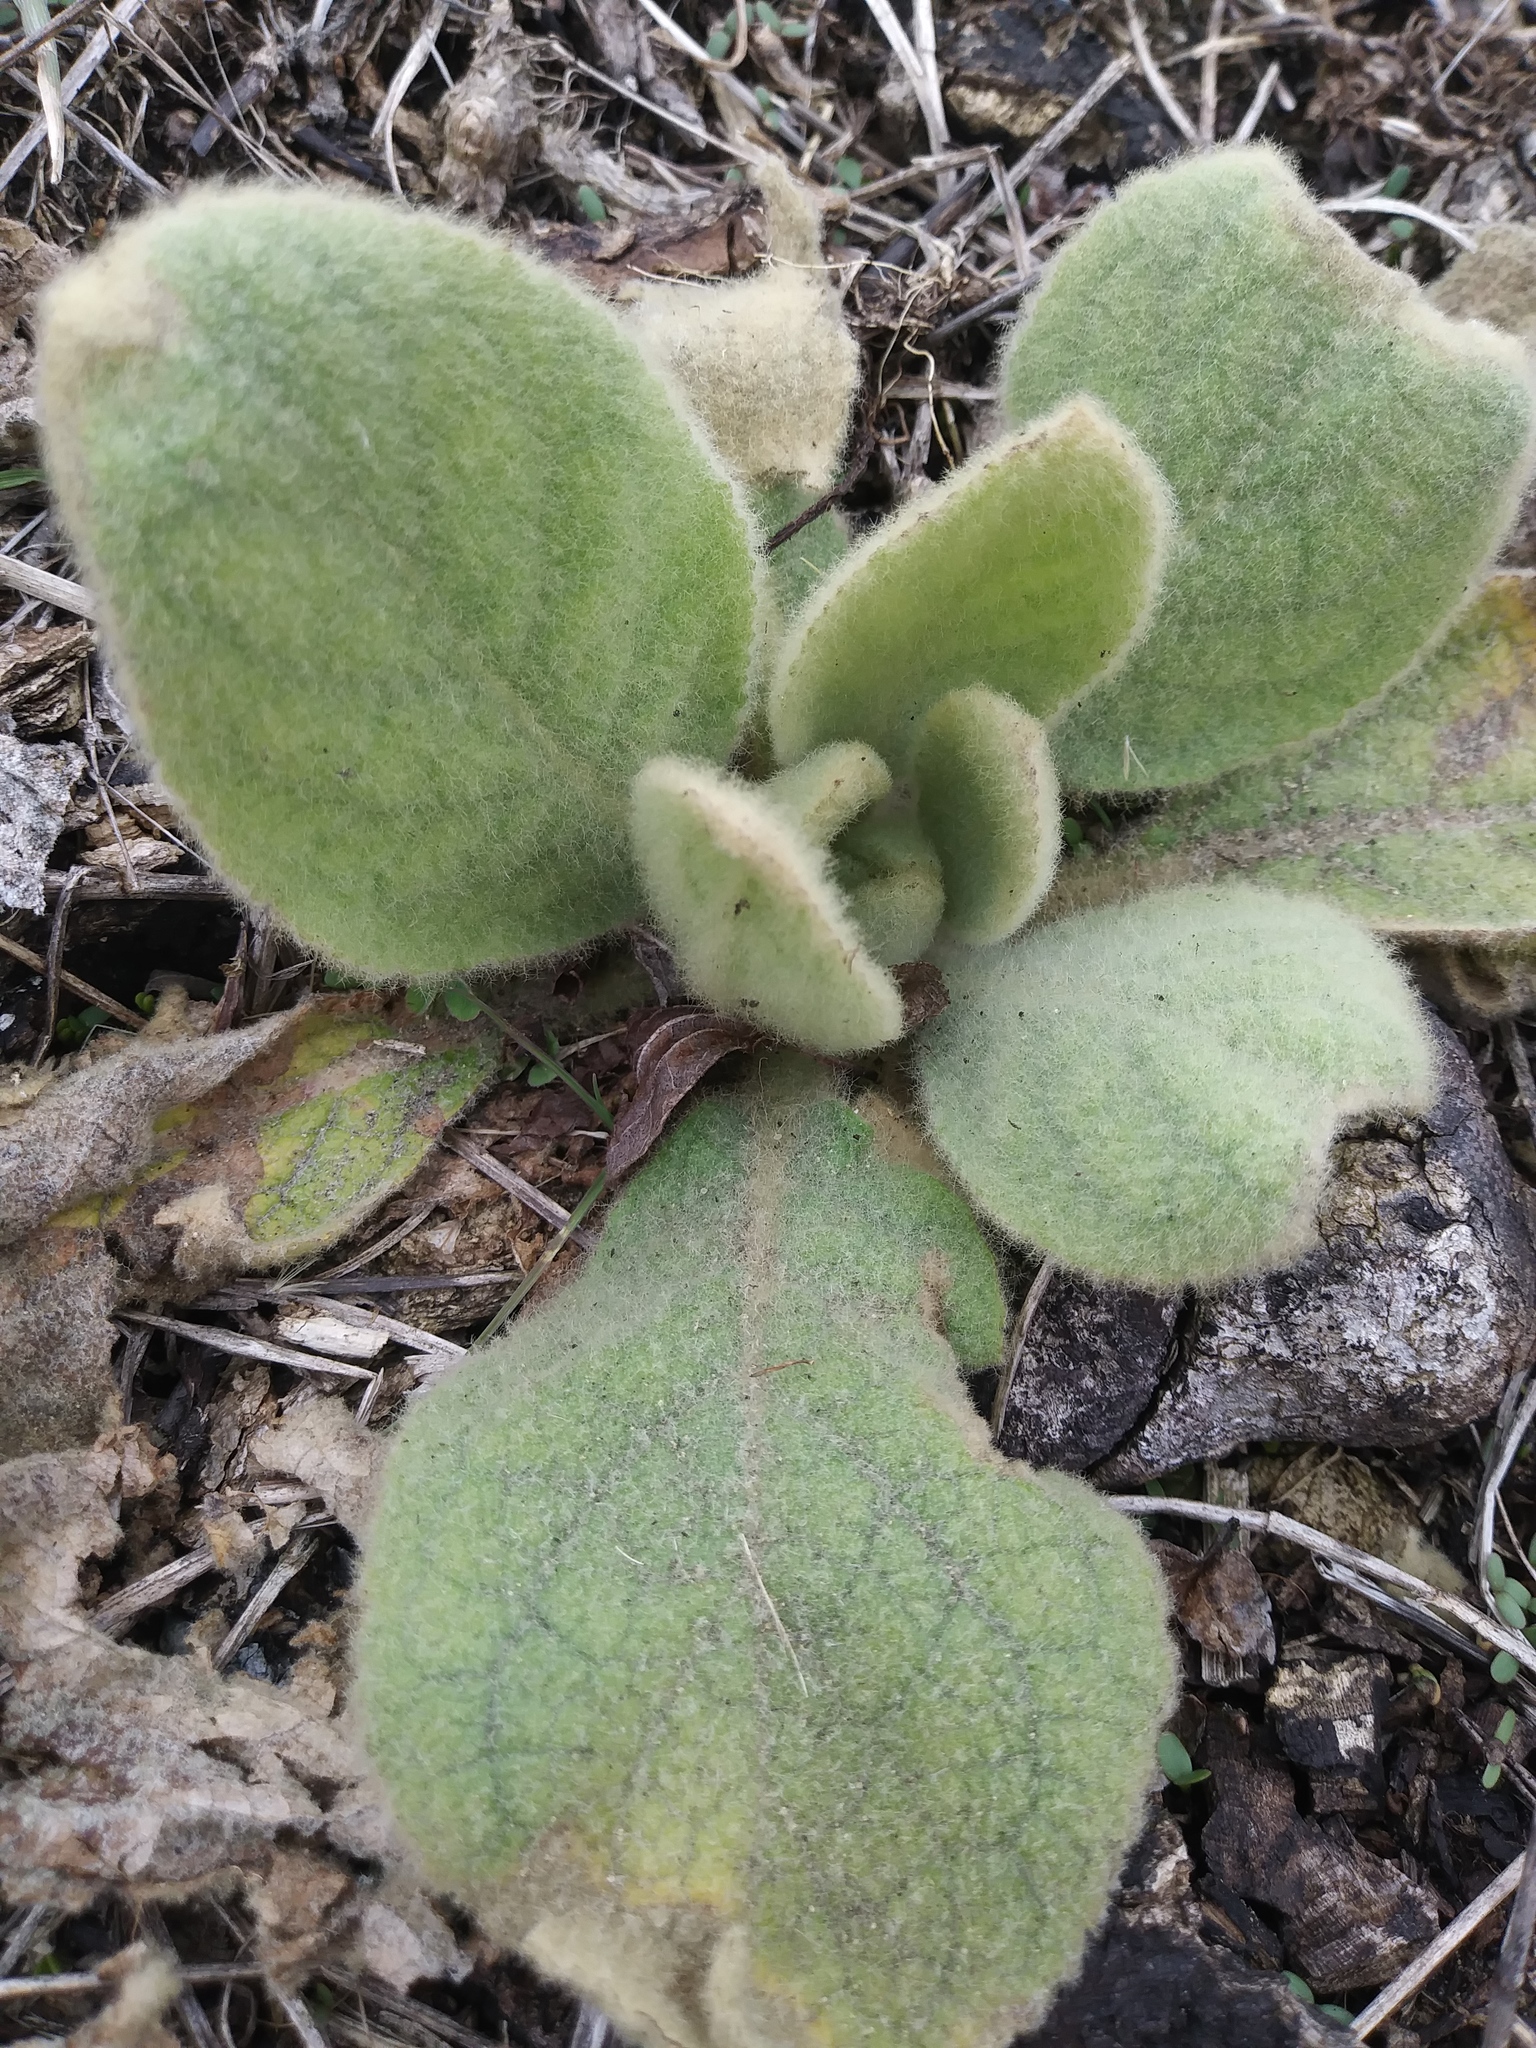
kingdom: Plantae
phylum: Tracheophyta
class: Magnoliopsida
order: Lamiales
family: Scrophulariaceae
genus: Verbascum
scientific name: Verbascum thapsus
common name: Common mullein
